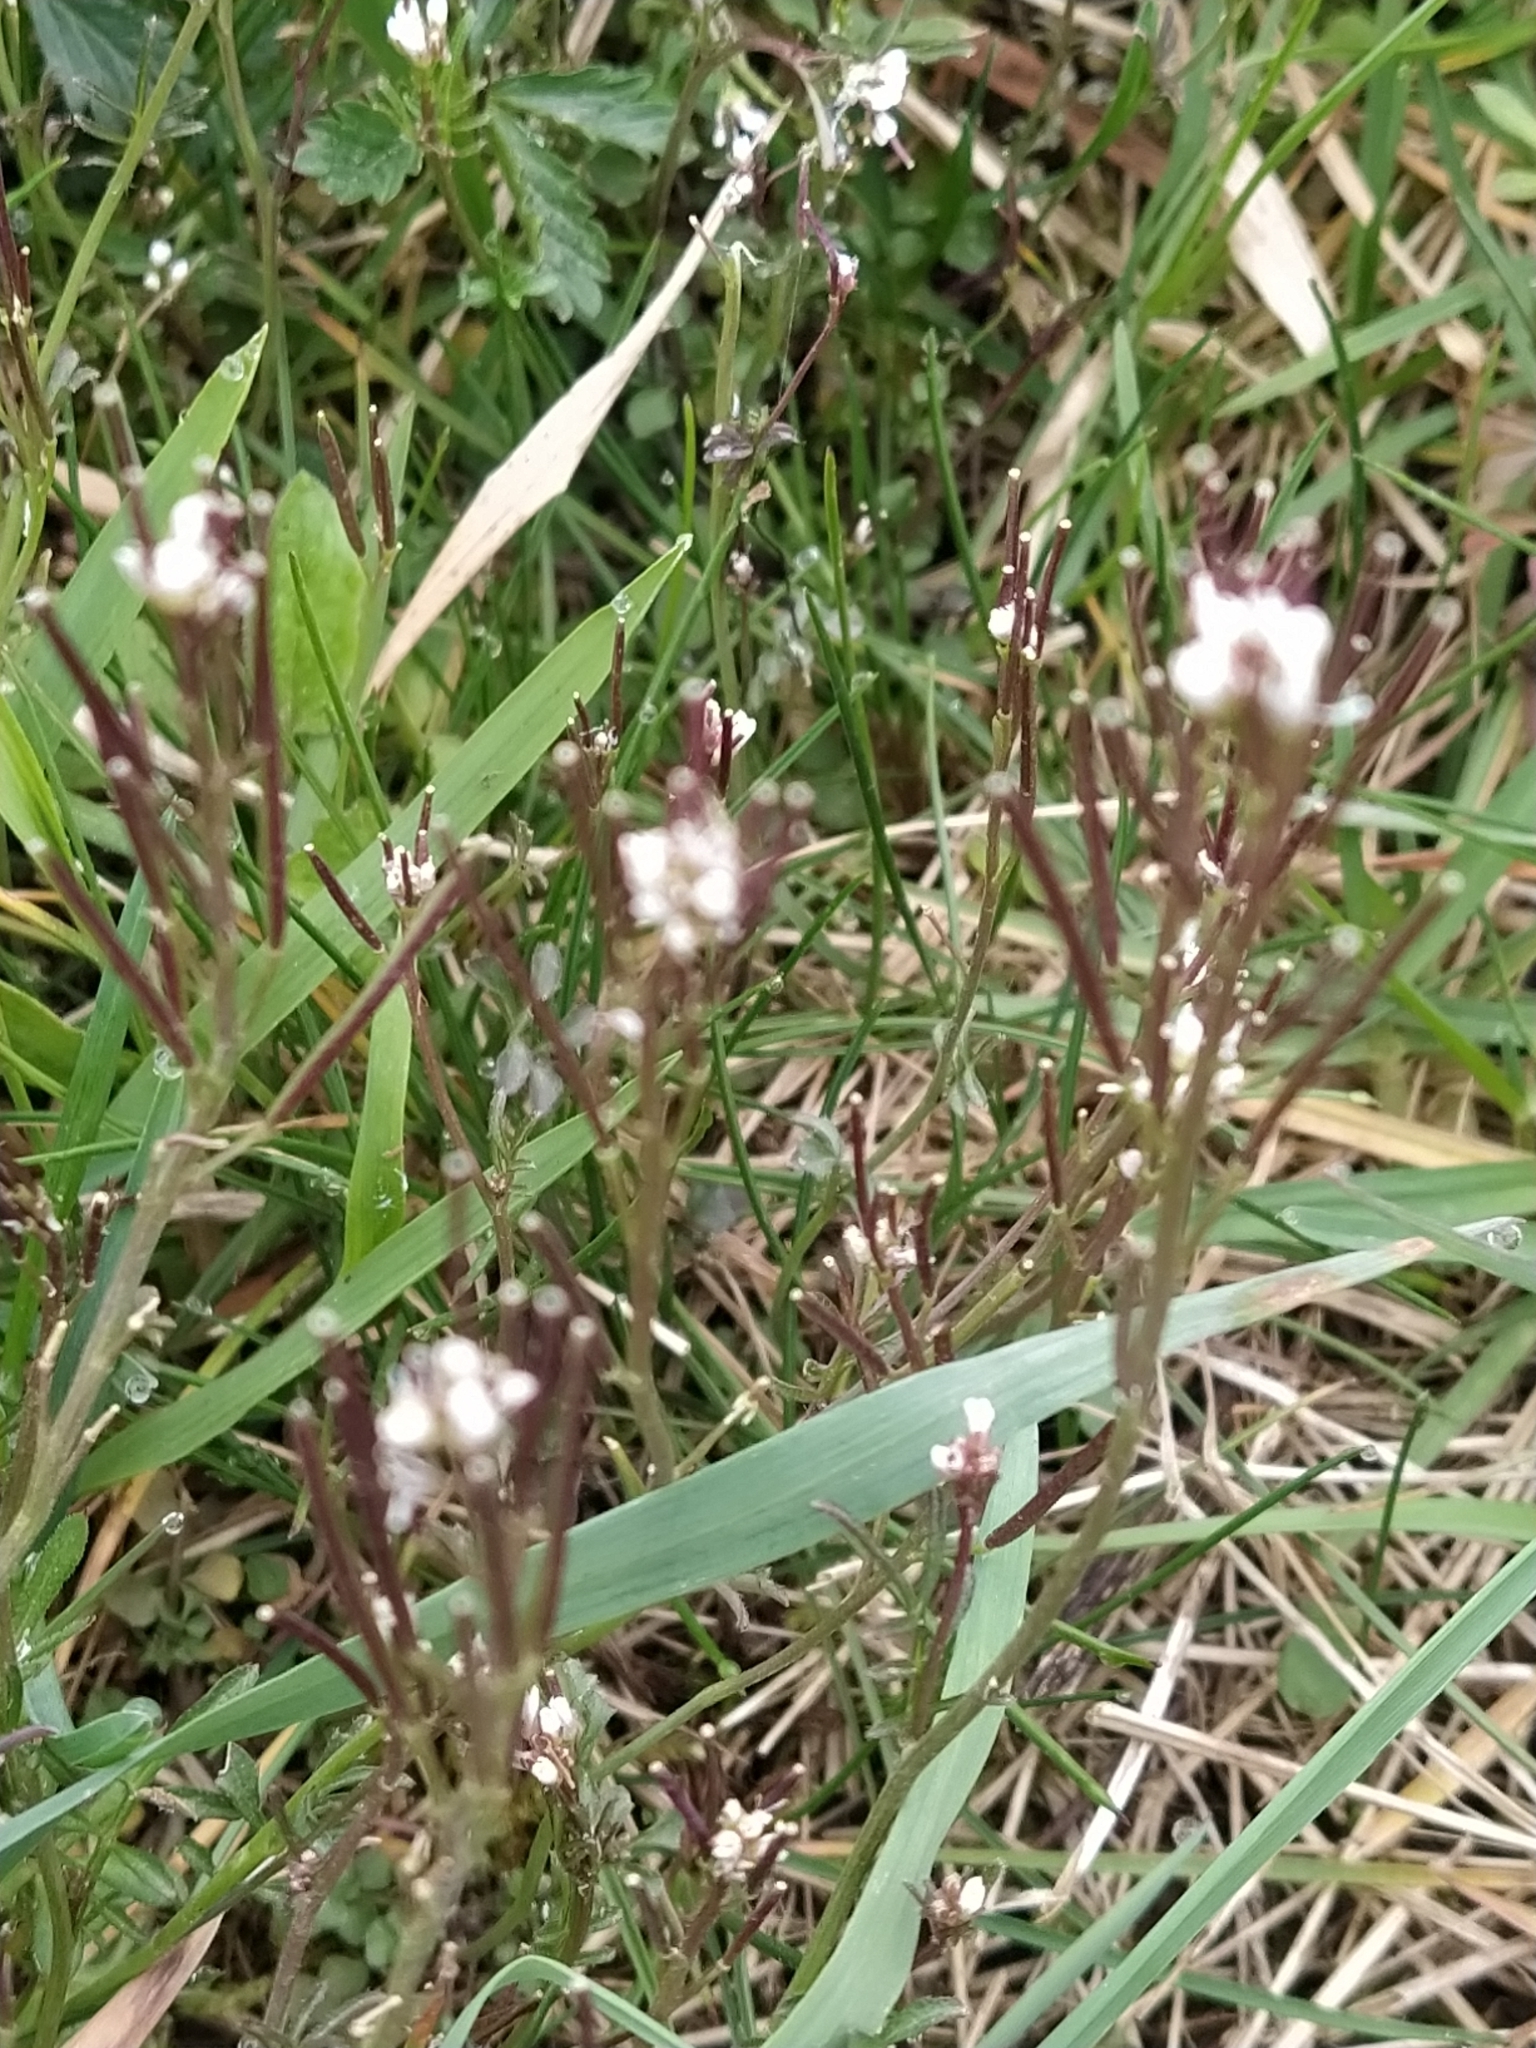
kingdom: Plantae
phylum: Tracheophyta
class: Magnoliopsida
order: Brassicales
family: Brassicaceae
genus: Cardamine
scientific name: Cardamine hirsuta
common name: Hairy bittercress
